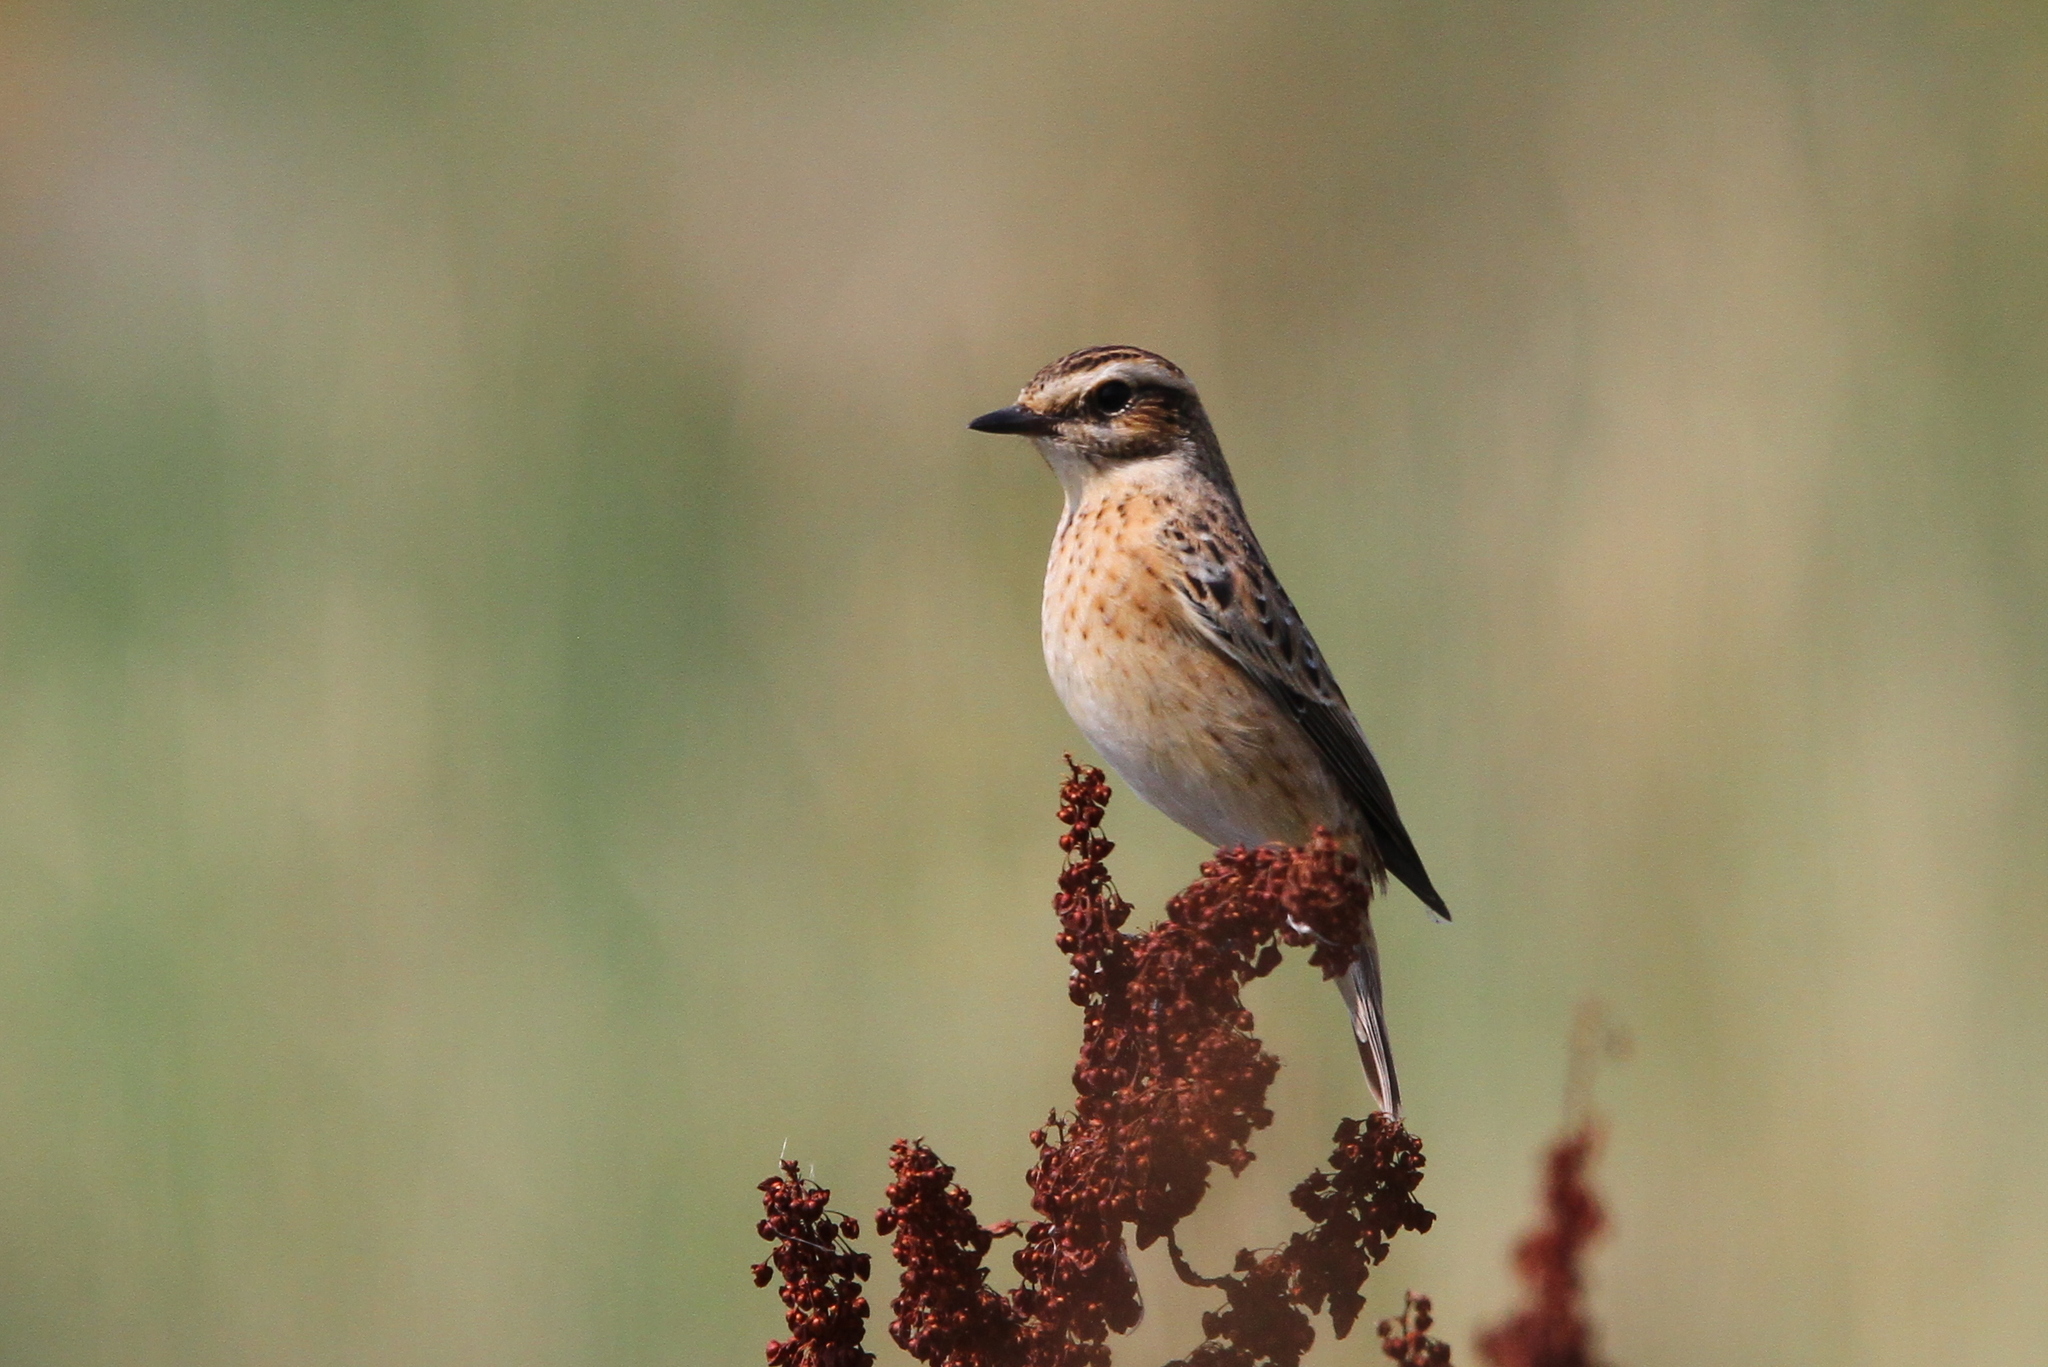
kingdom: Animalia
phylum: Chordata
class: Aves
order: Passeriformes
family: Muscicapidae
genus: Saxicola
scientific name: Saxicola rubetra
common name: Whinchat
